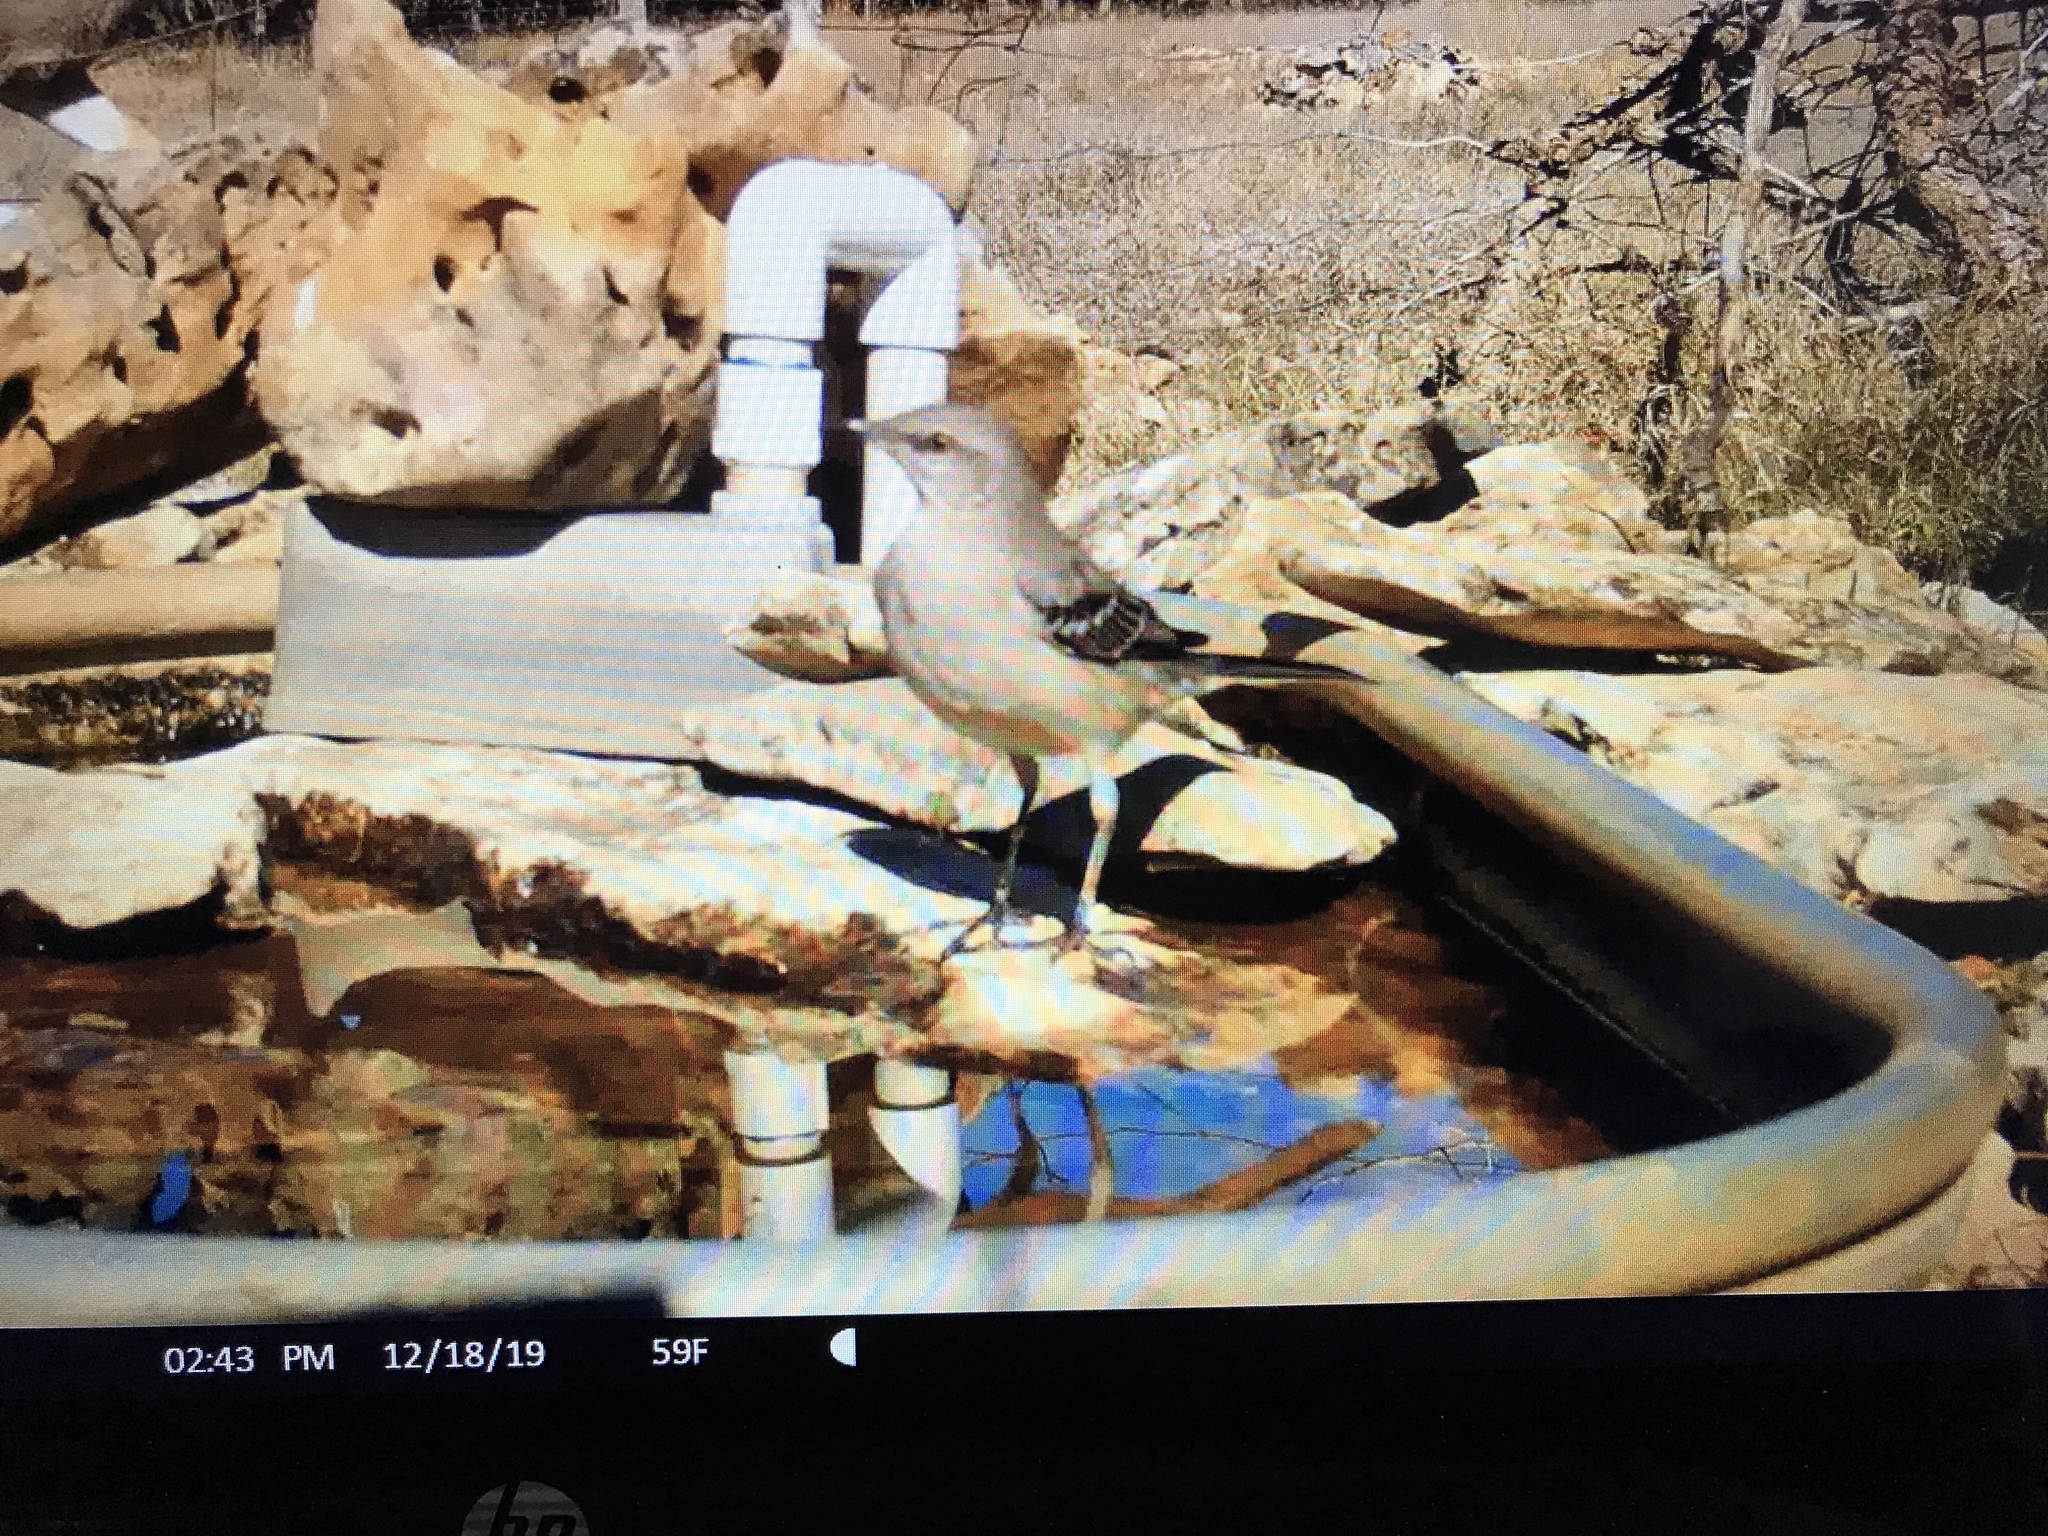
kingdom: Animalia
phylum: Chordata
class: Aves
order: Passeriformes
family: Mimidae
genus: Mimus
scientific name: Mimus polyglottos
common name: Northern mockingbird
